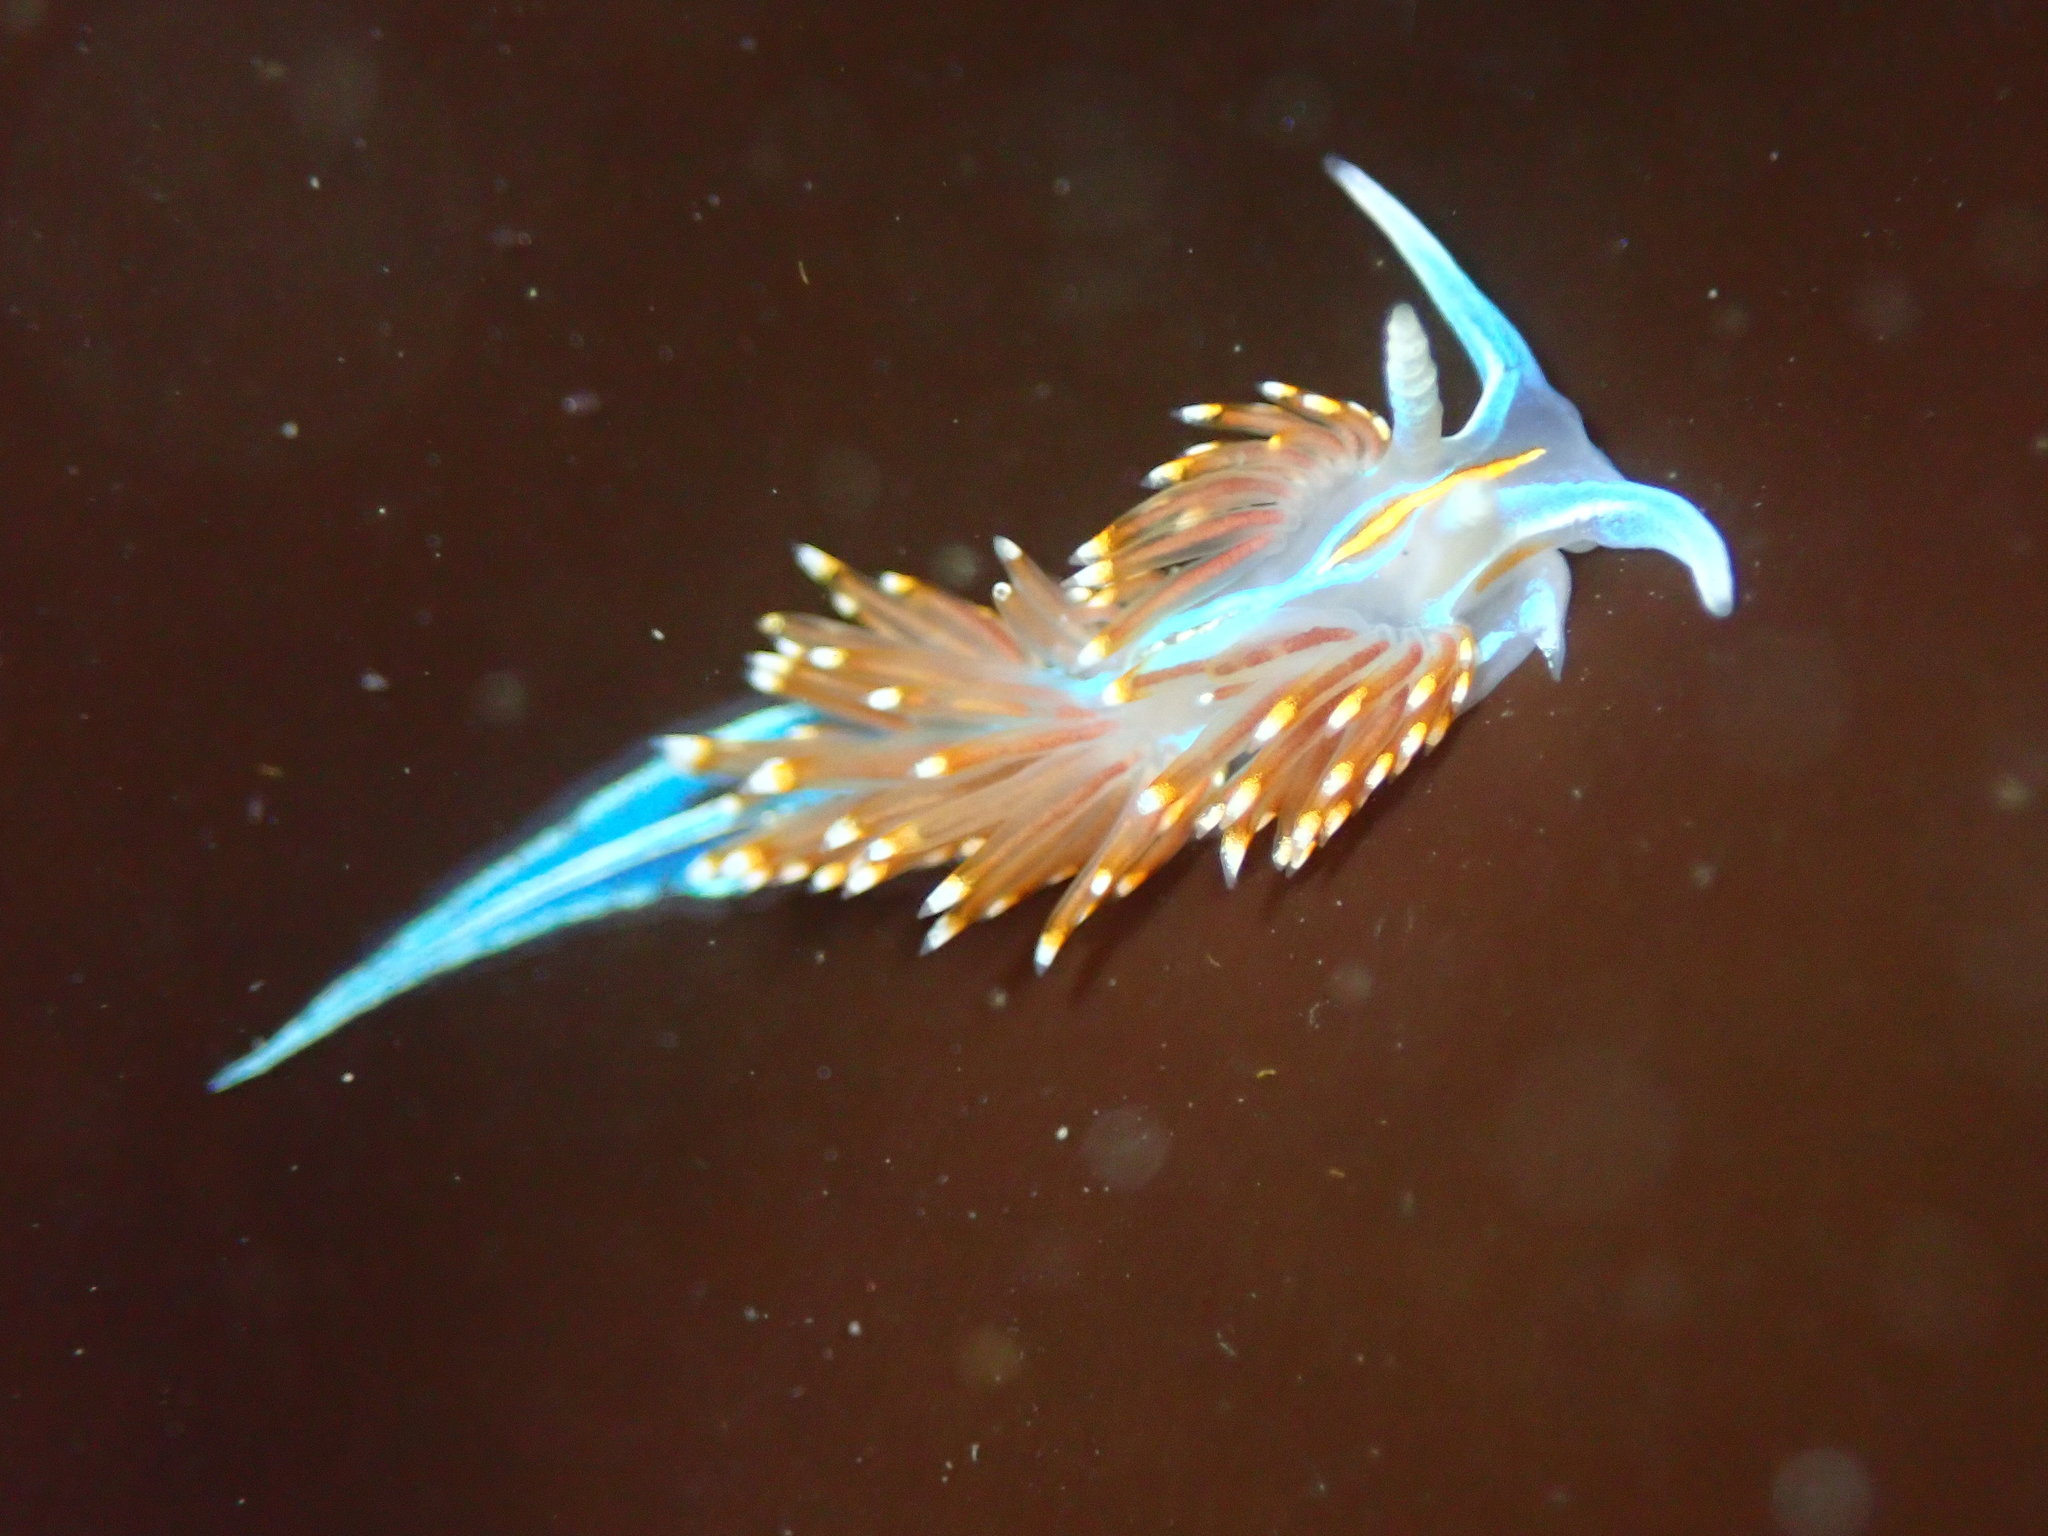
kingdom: Animalia
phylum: Mollusca
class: Gastropoda
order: Nudibranchia
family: Myrrhinidae
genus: Hermissenda
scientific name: Hermissenda opalescens
